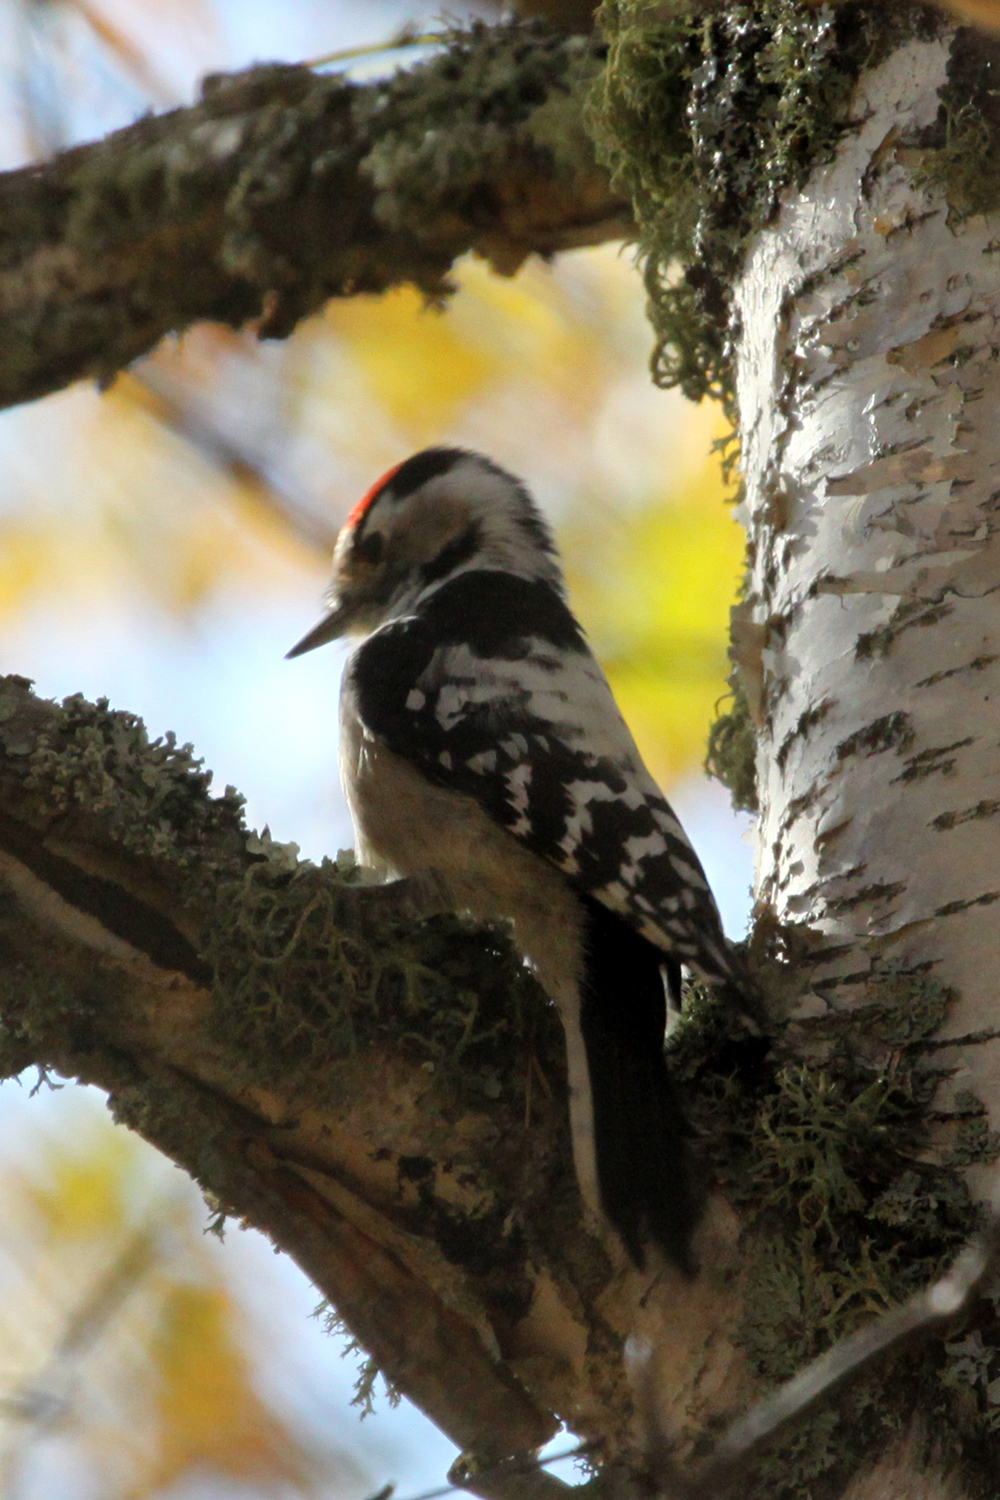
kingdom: Animalia
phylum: Chordata
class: Aves
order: Piciformes
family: Picidae
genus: Dryobates
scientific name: Dryobates minor
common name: Lesser spotted woodpecker
